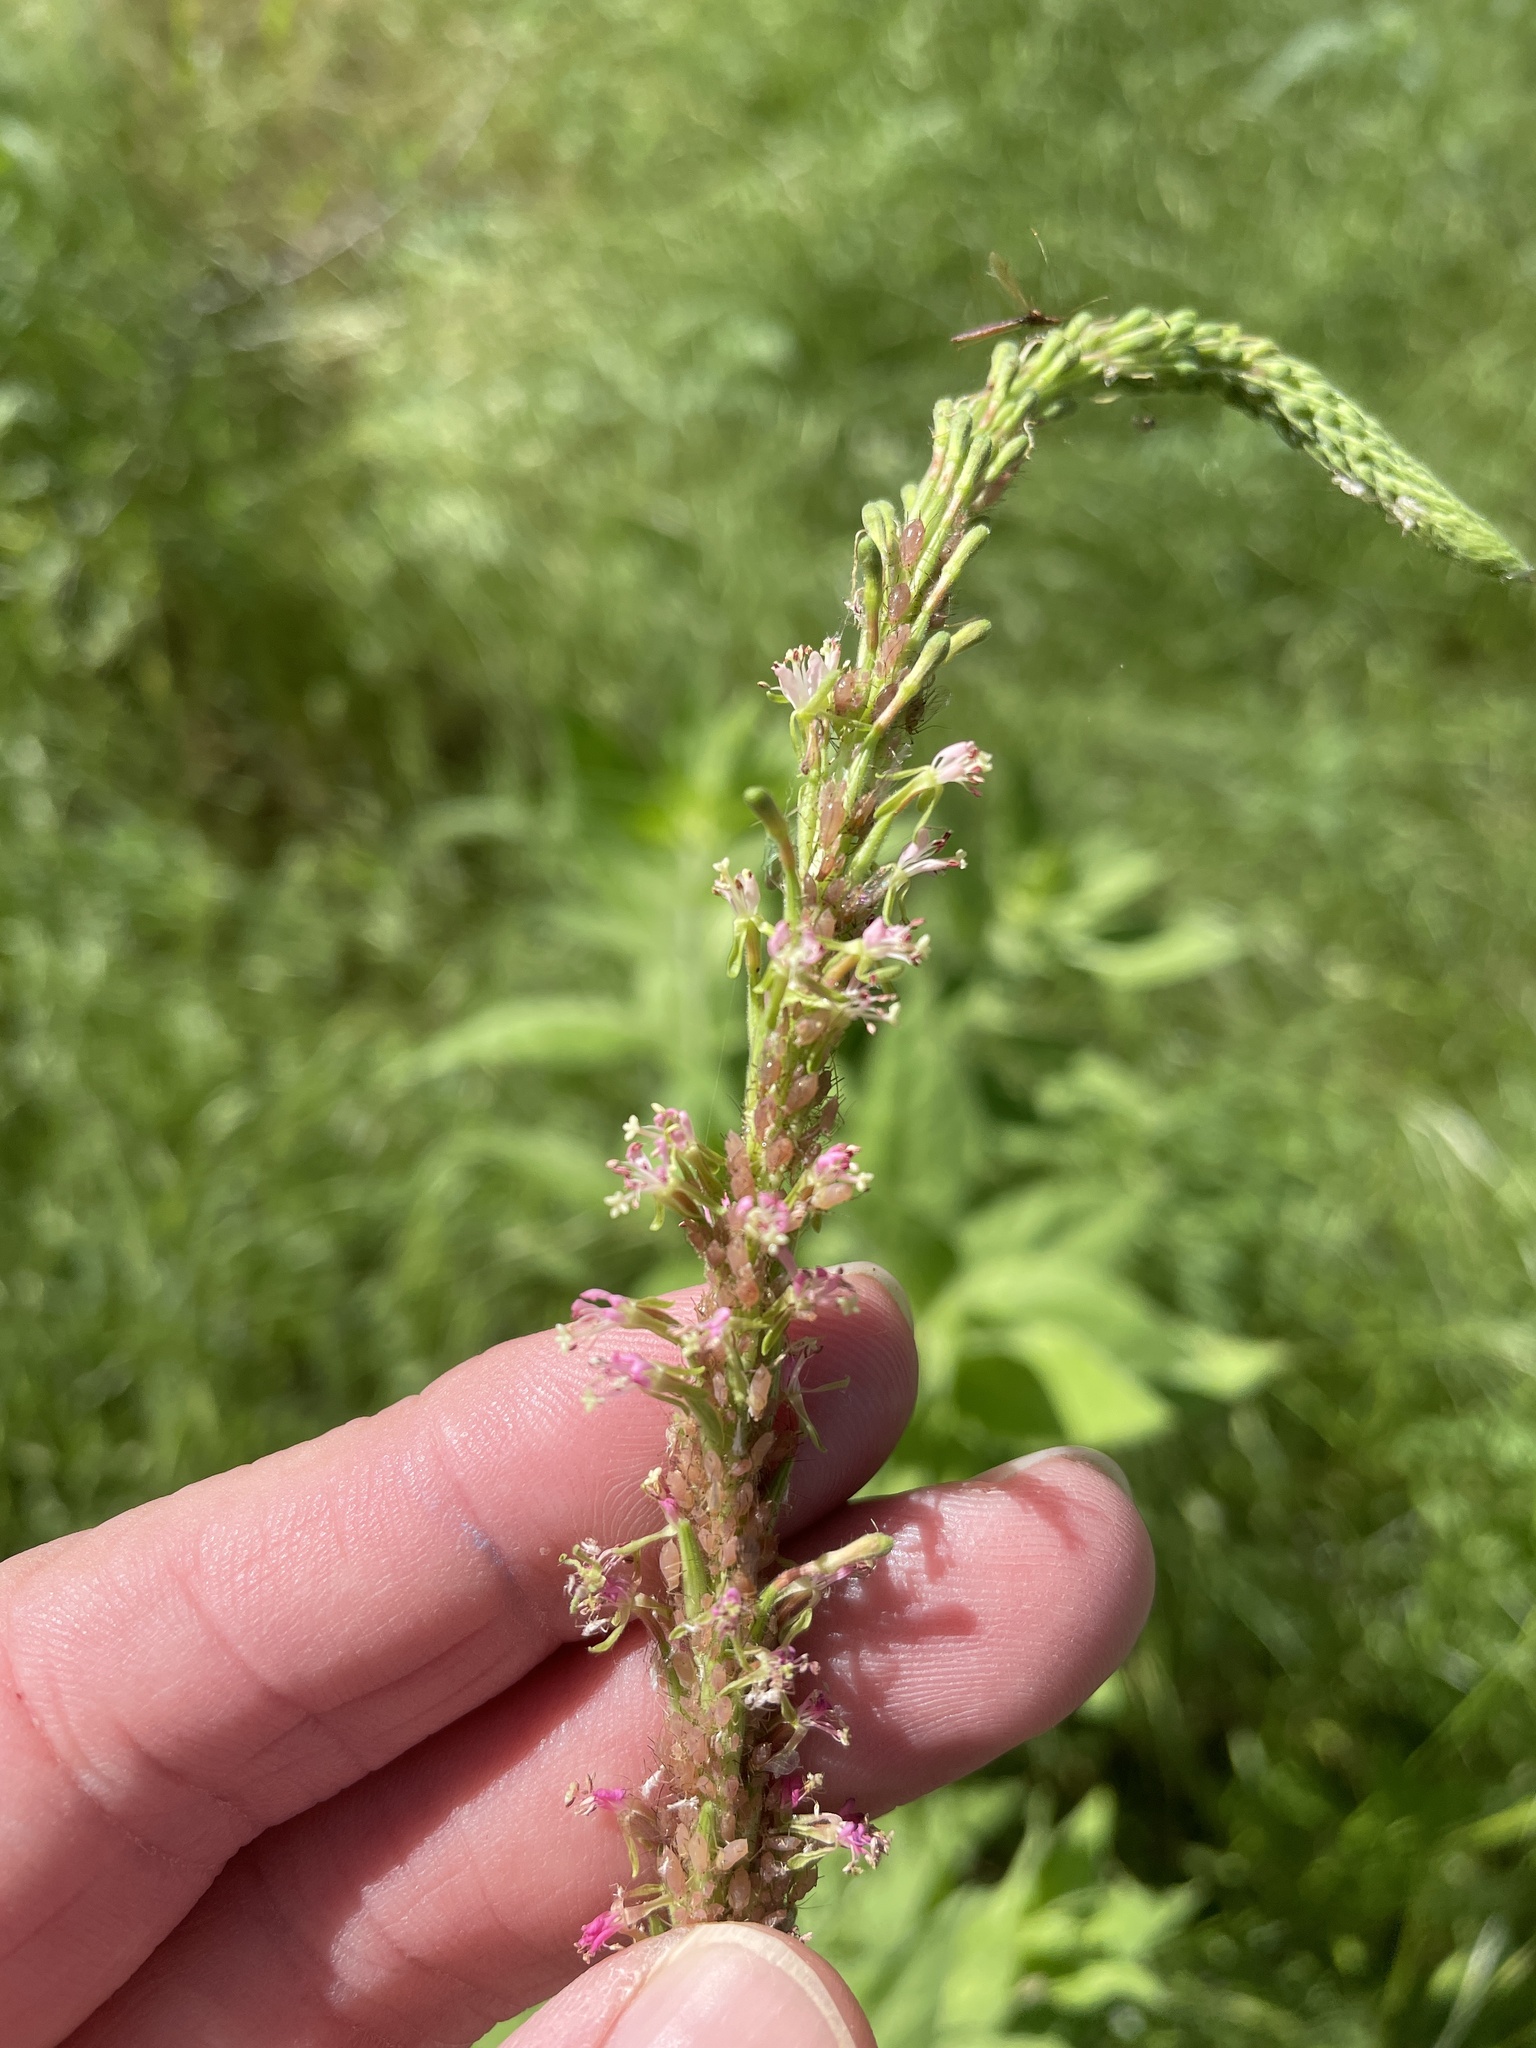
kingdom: Plantae
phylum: Tracheophyta
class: Magnoliopsida
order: Myrtales
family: Onagraceae
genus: Oenothera
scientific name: Oenothera curtiflora
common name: Velvetweed
